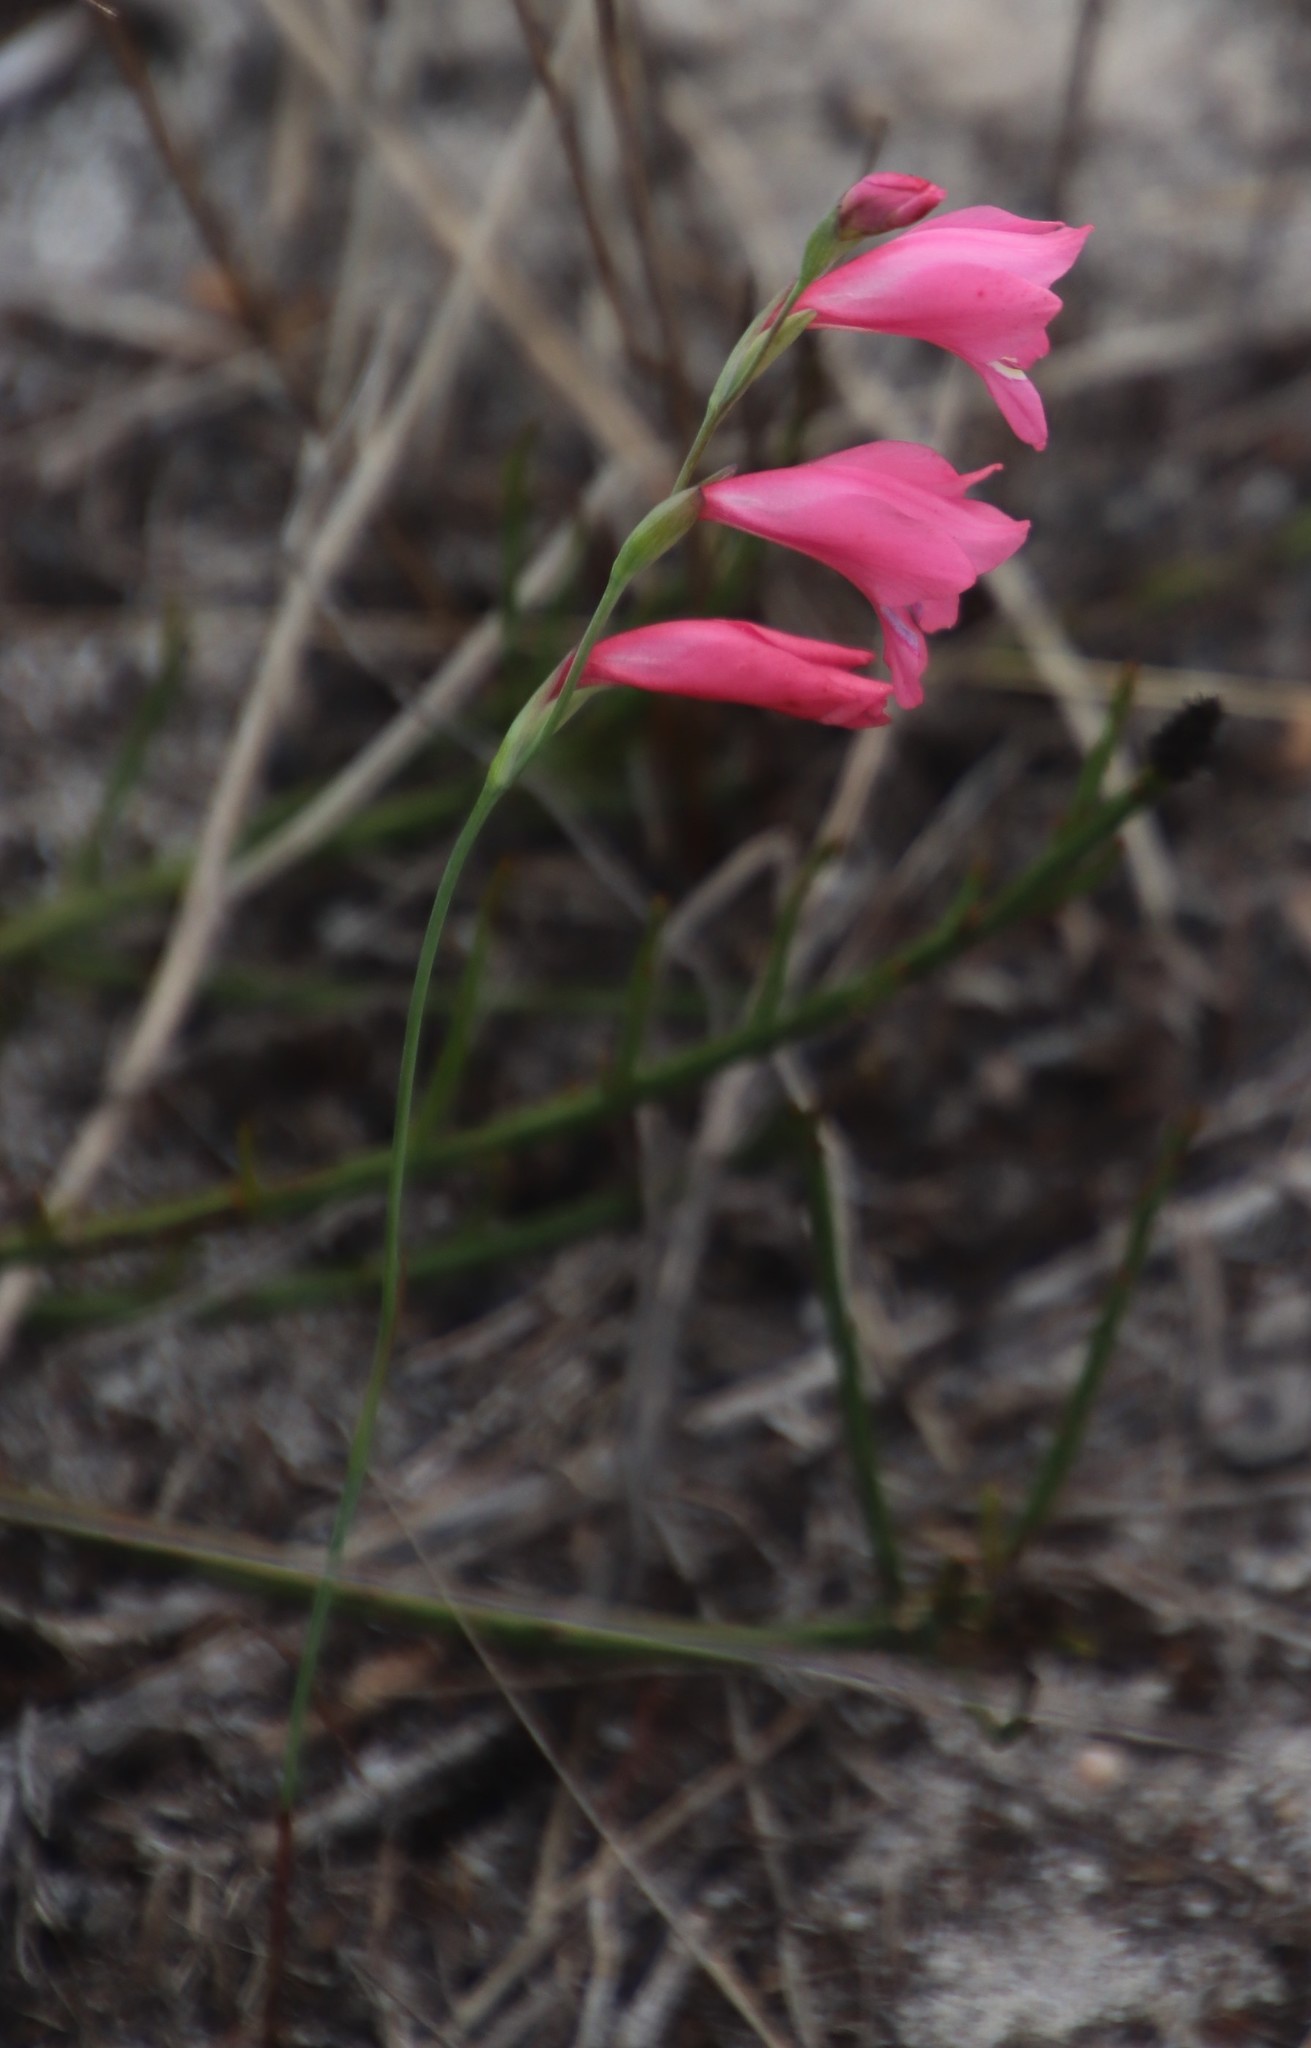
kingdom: Plantae
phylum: Tracheophyta
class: Liliopsida
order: Asparagales
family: Iridaceae
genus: Gladiolus
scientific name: Gladiolus brevifolius
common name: March pypie
